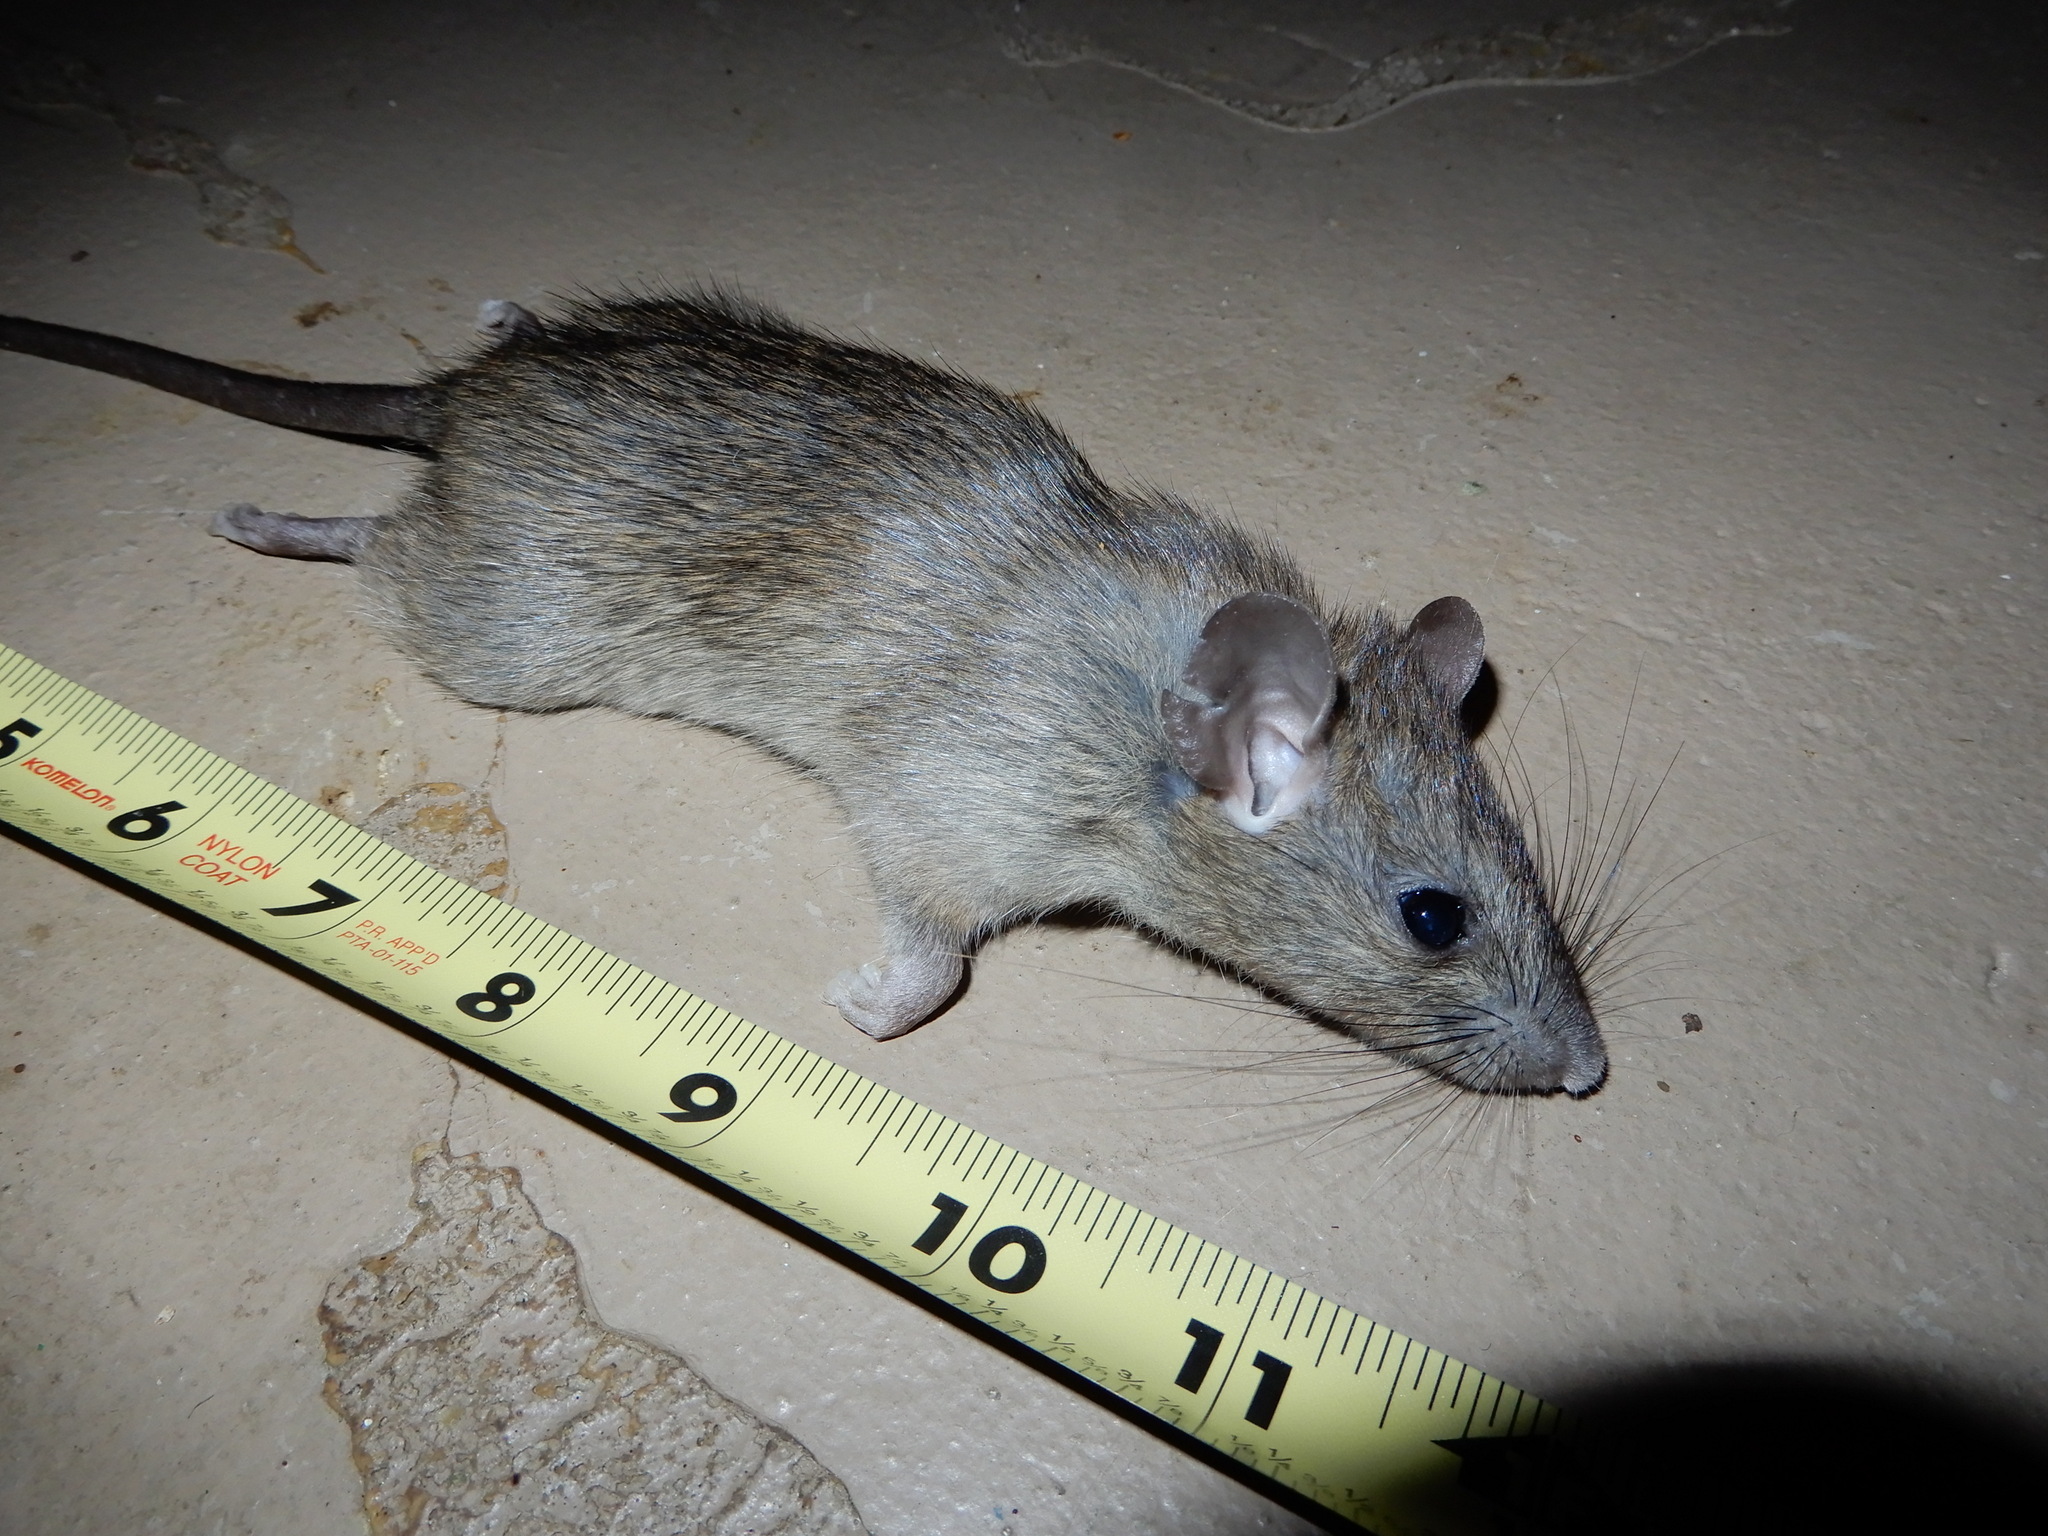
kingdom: Animalia
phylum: Chordata
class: Mammalia
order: Rodentia
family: Muridae
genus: Rattus
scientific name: Rattus rattus
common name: Black rat
